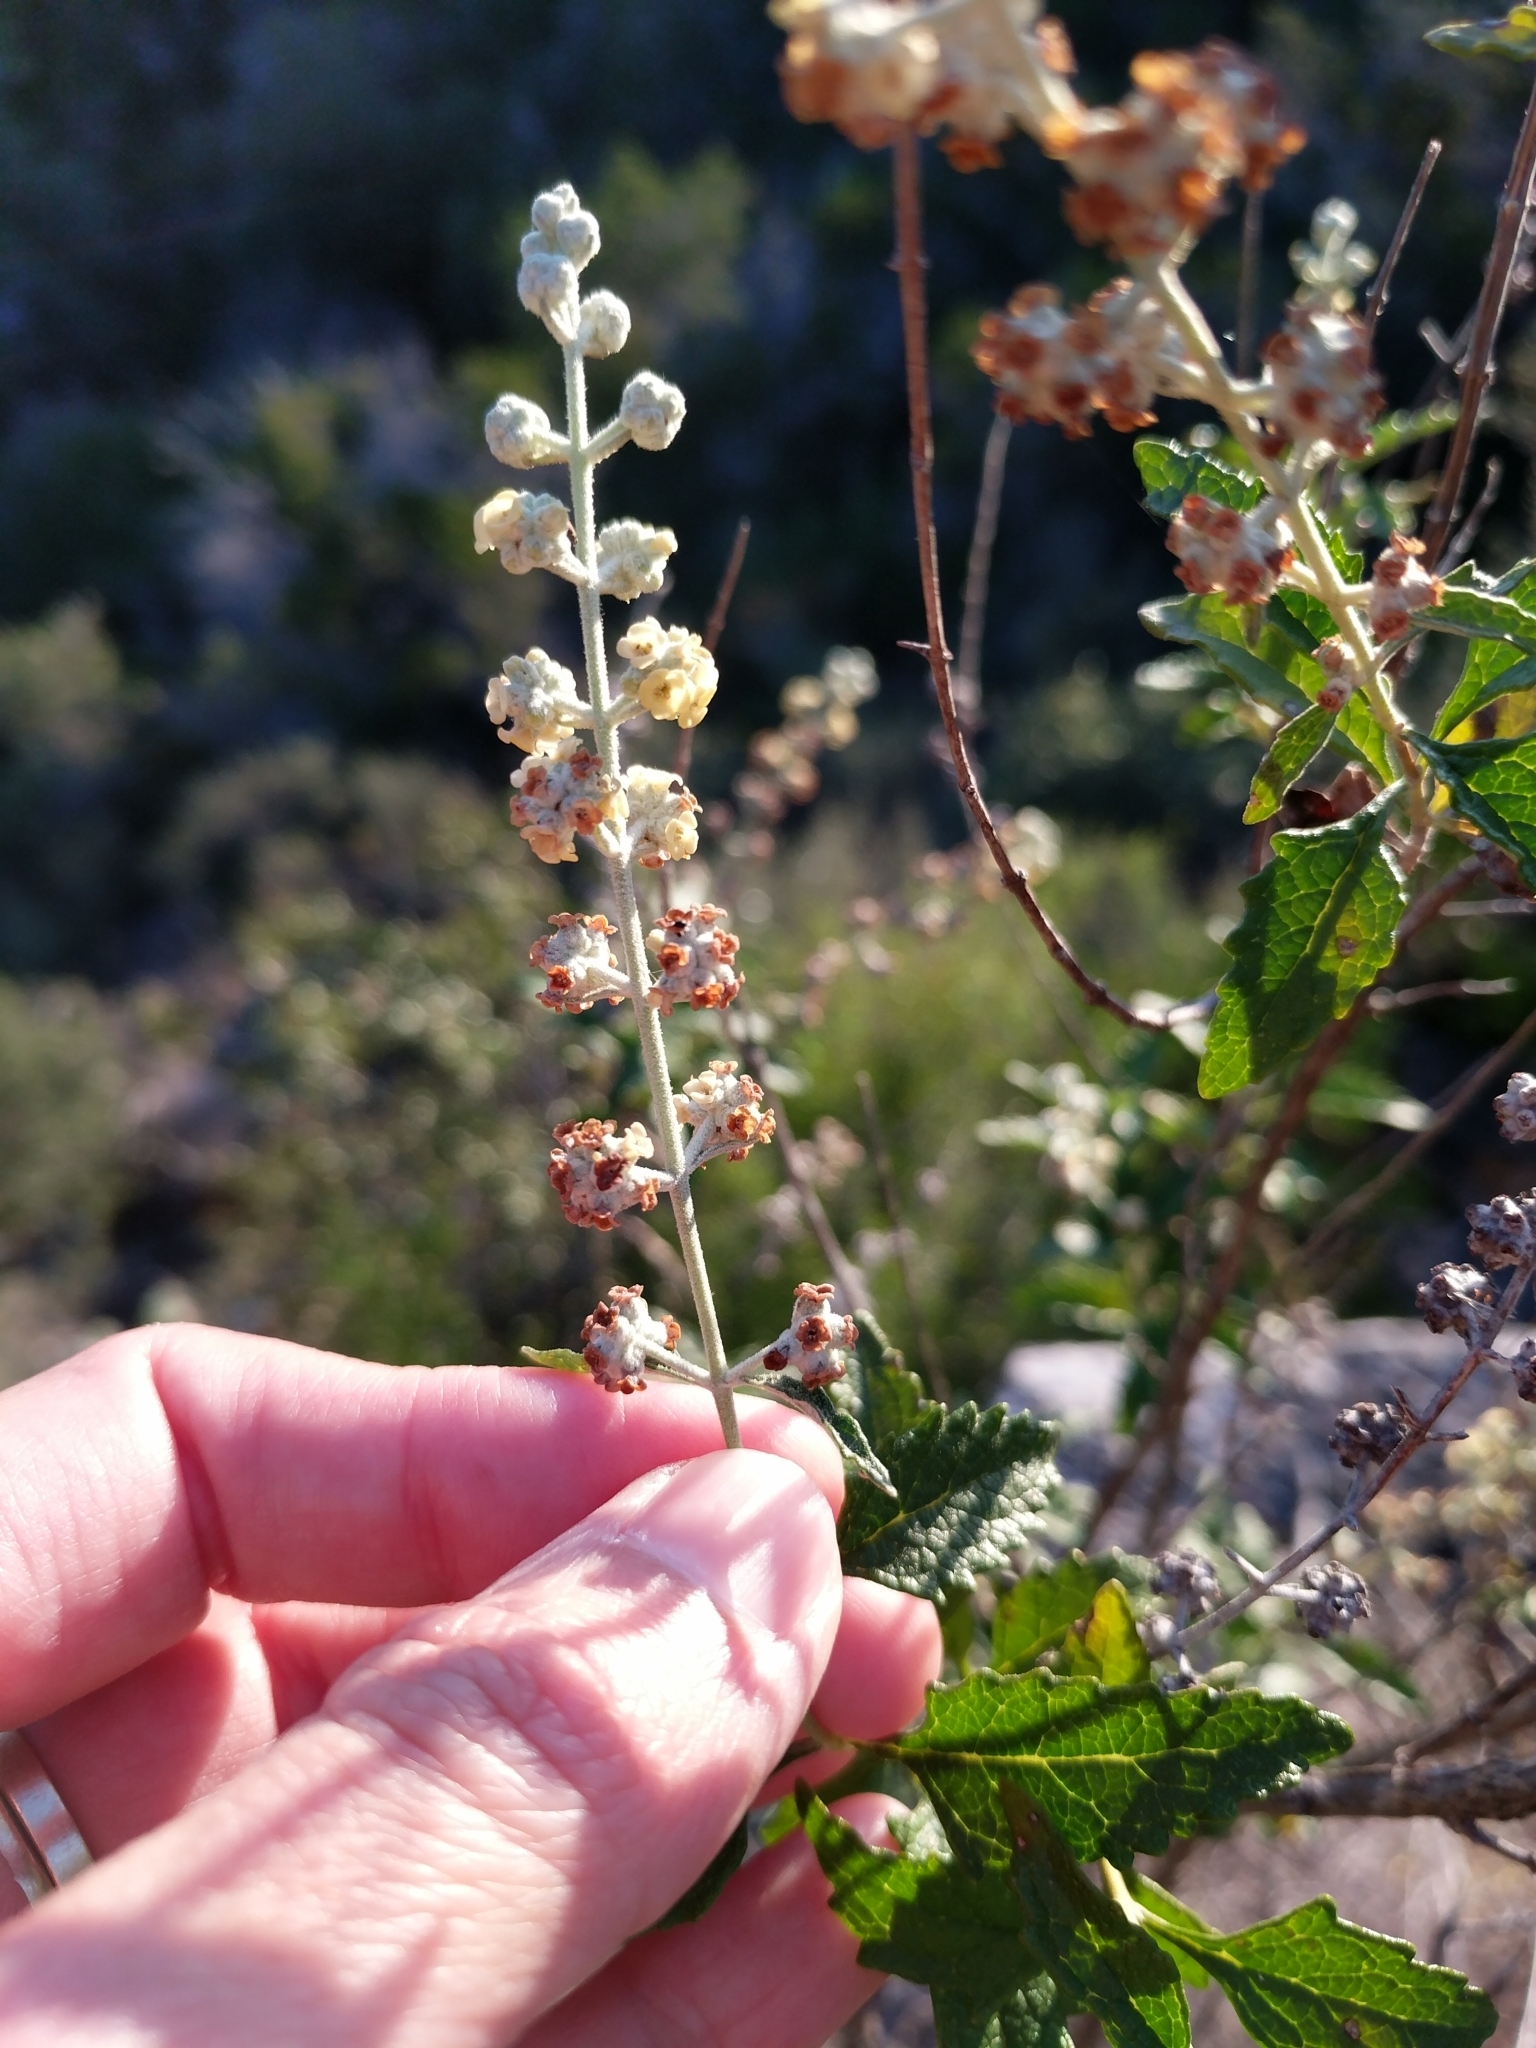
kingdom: Plantae
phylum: Tracheophyta
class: Magnoliopsida
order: Lamiales
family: Scrophulariaceae
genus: Buddleja
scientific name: Buddleja racemosa
